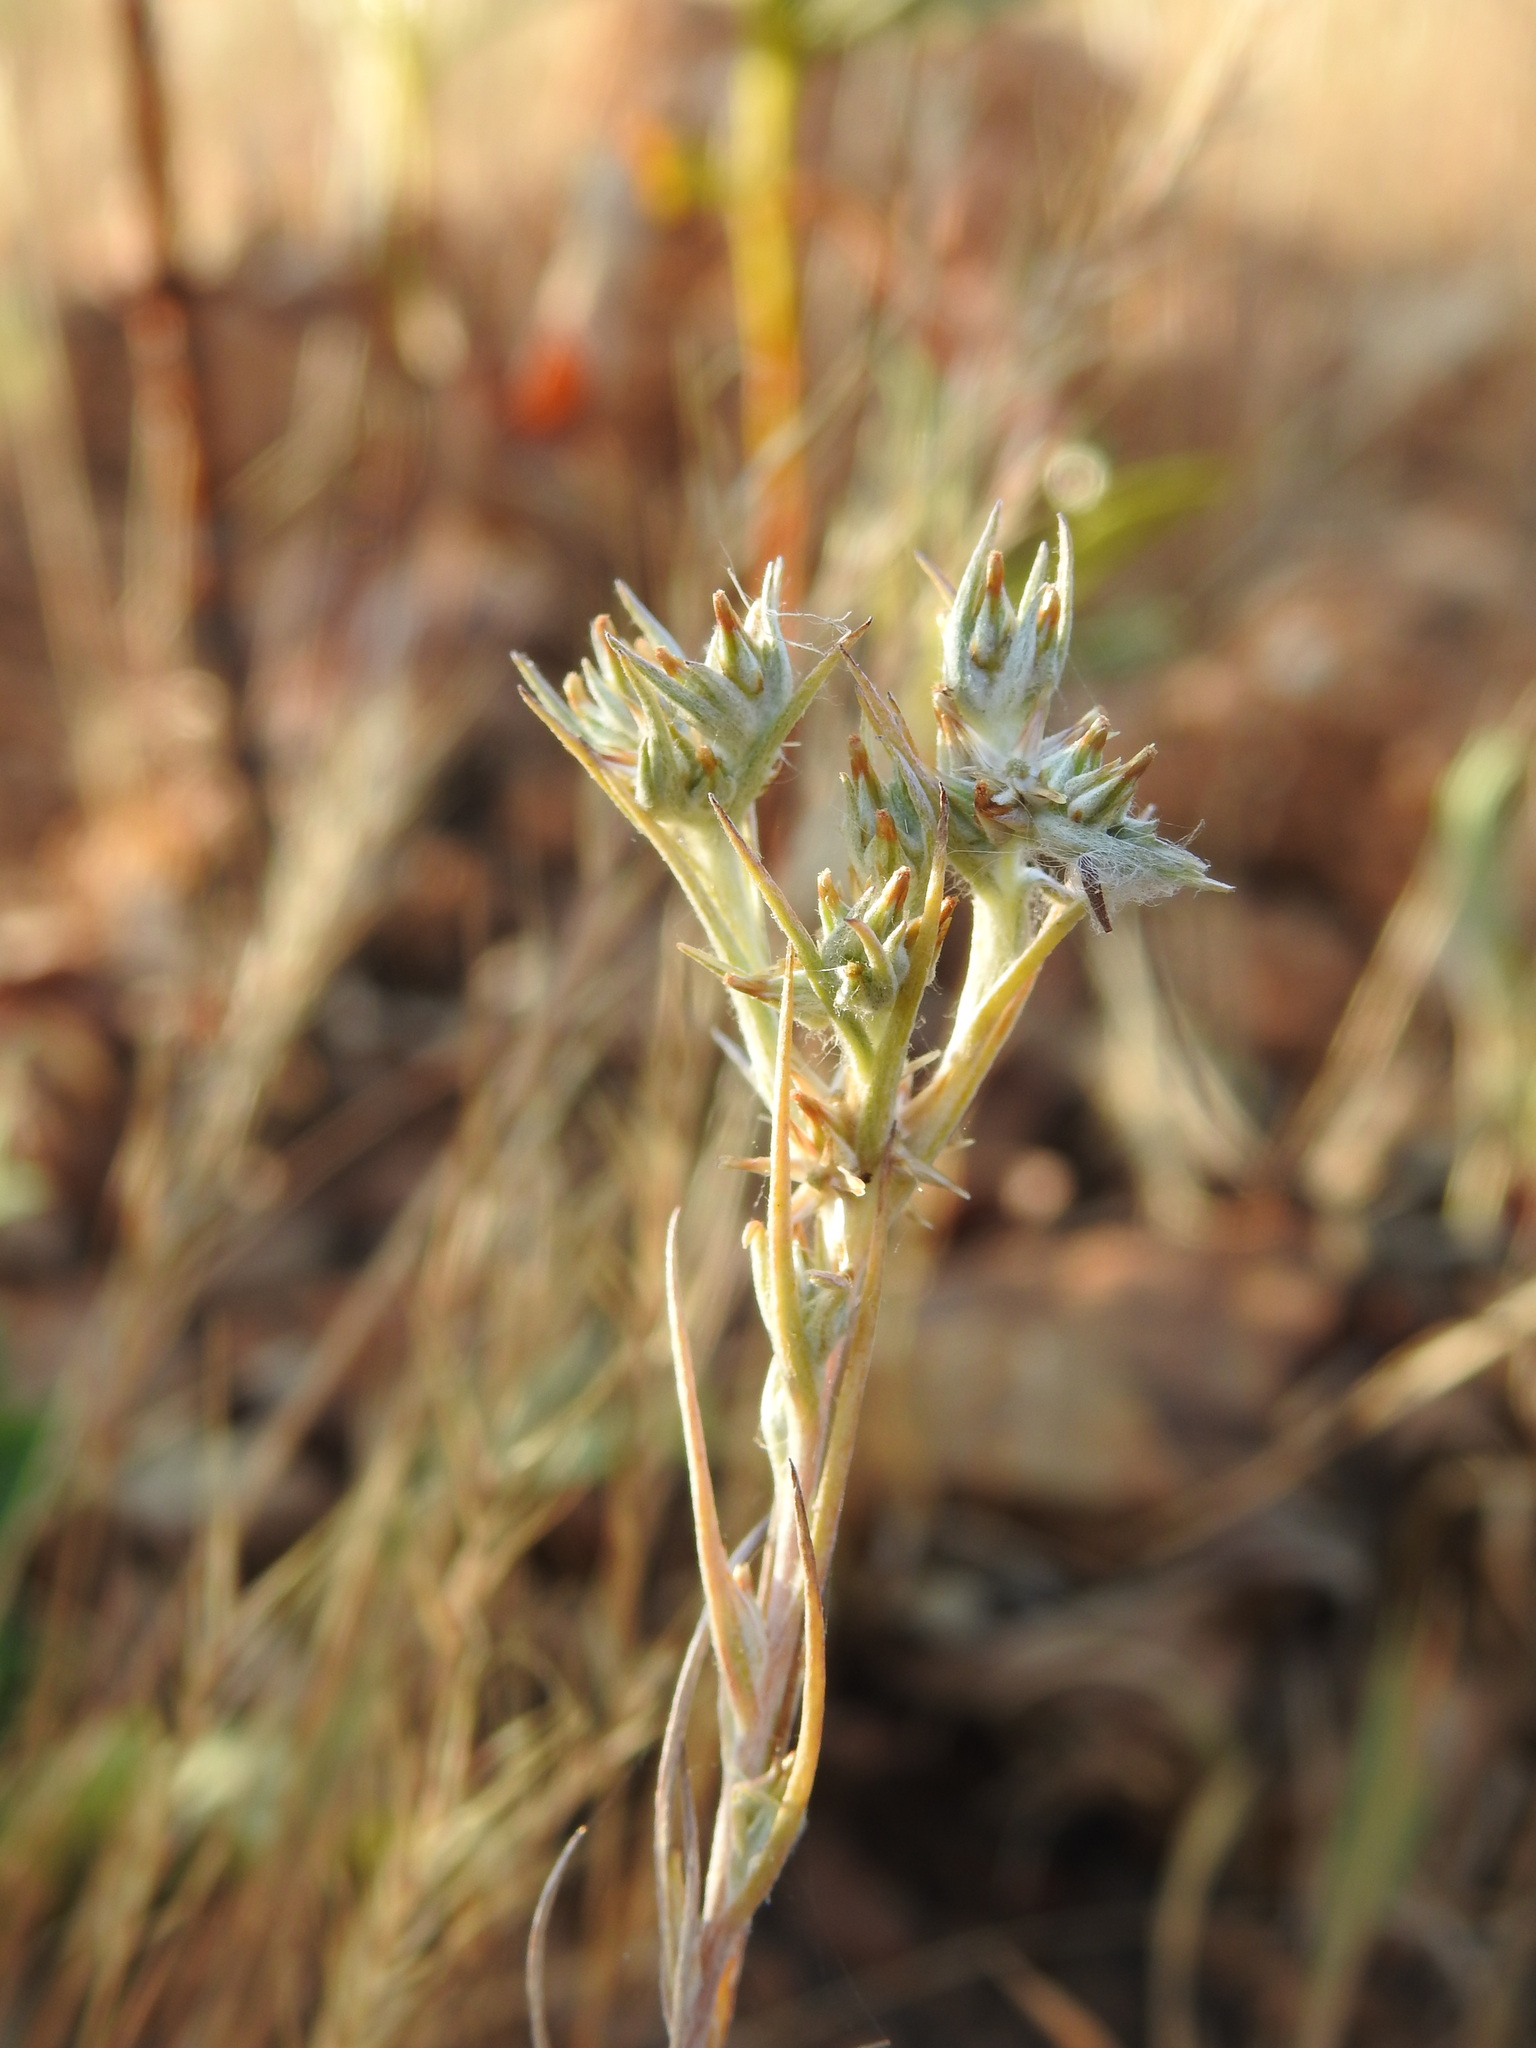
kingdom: Plantae
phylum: Tracheophyta
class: Magnoliopsida
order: Asterales
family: Asteraceae
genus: Logfia
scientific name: Logfia gallica
